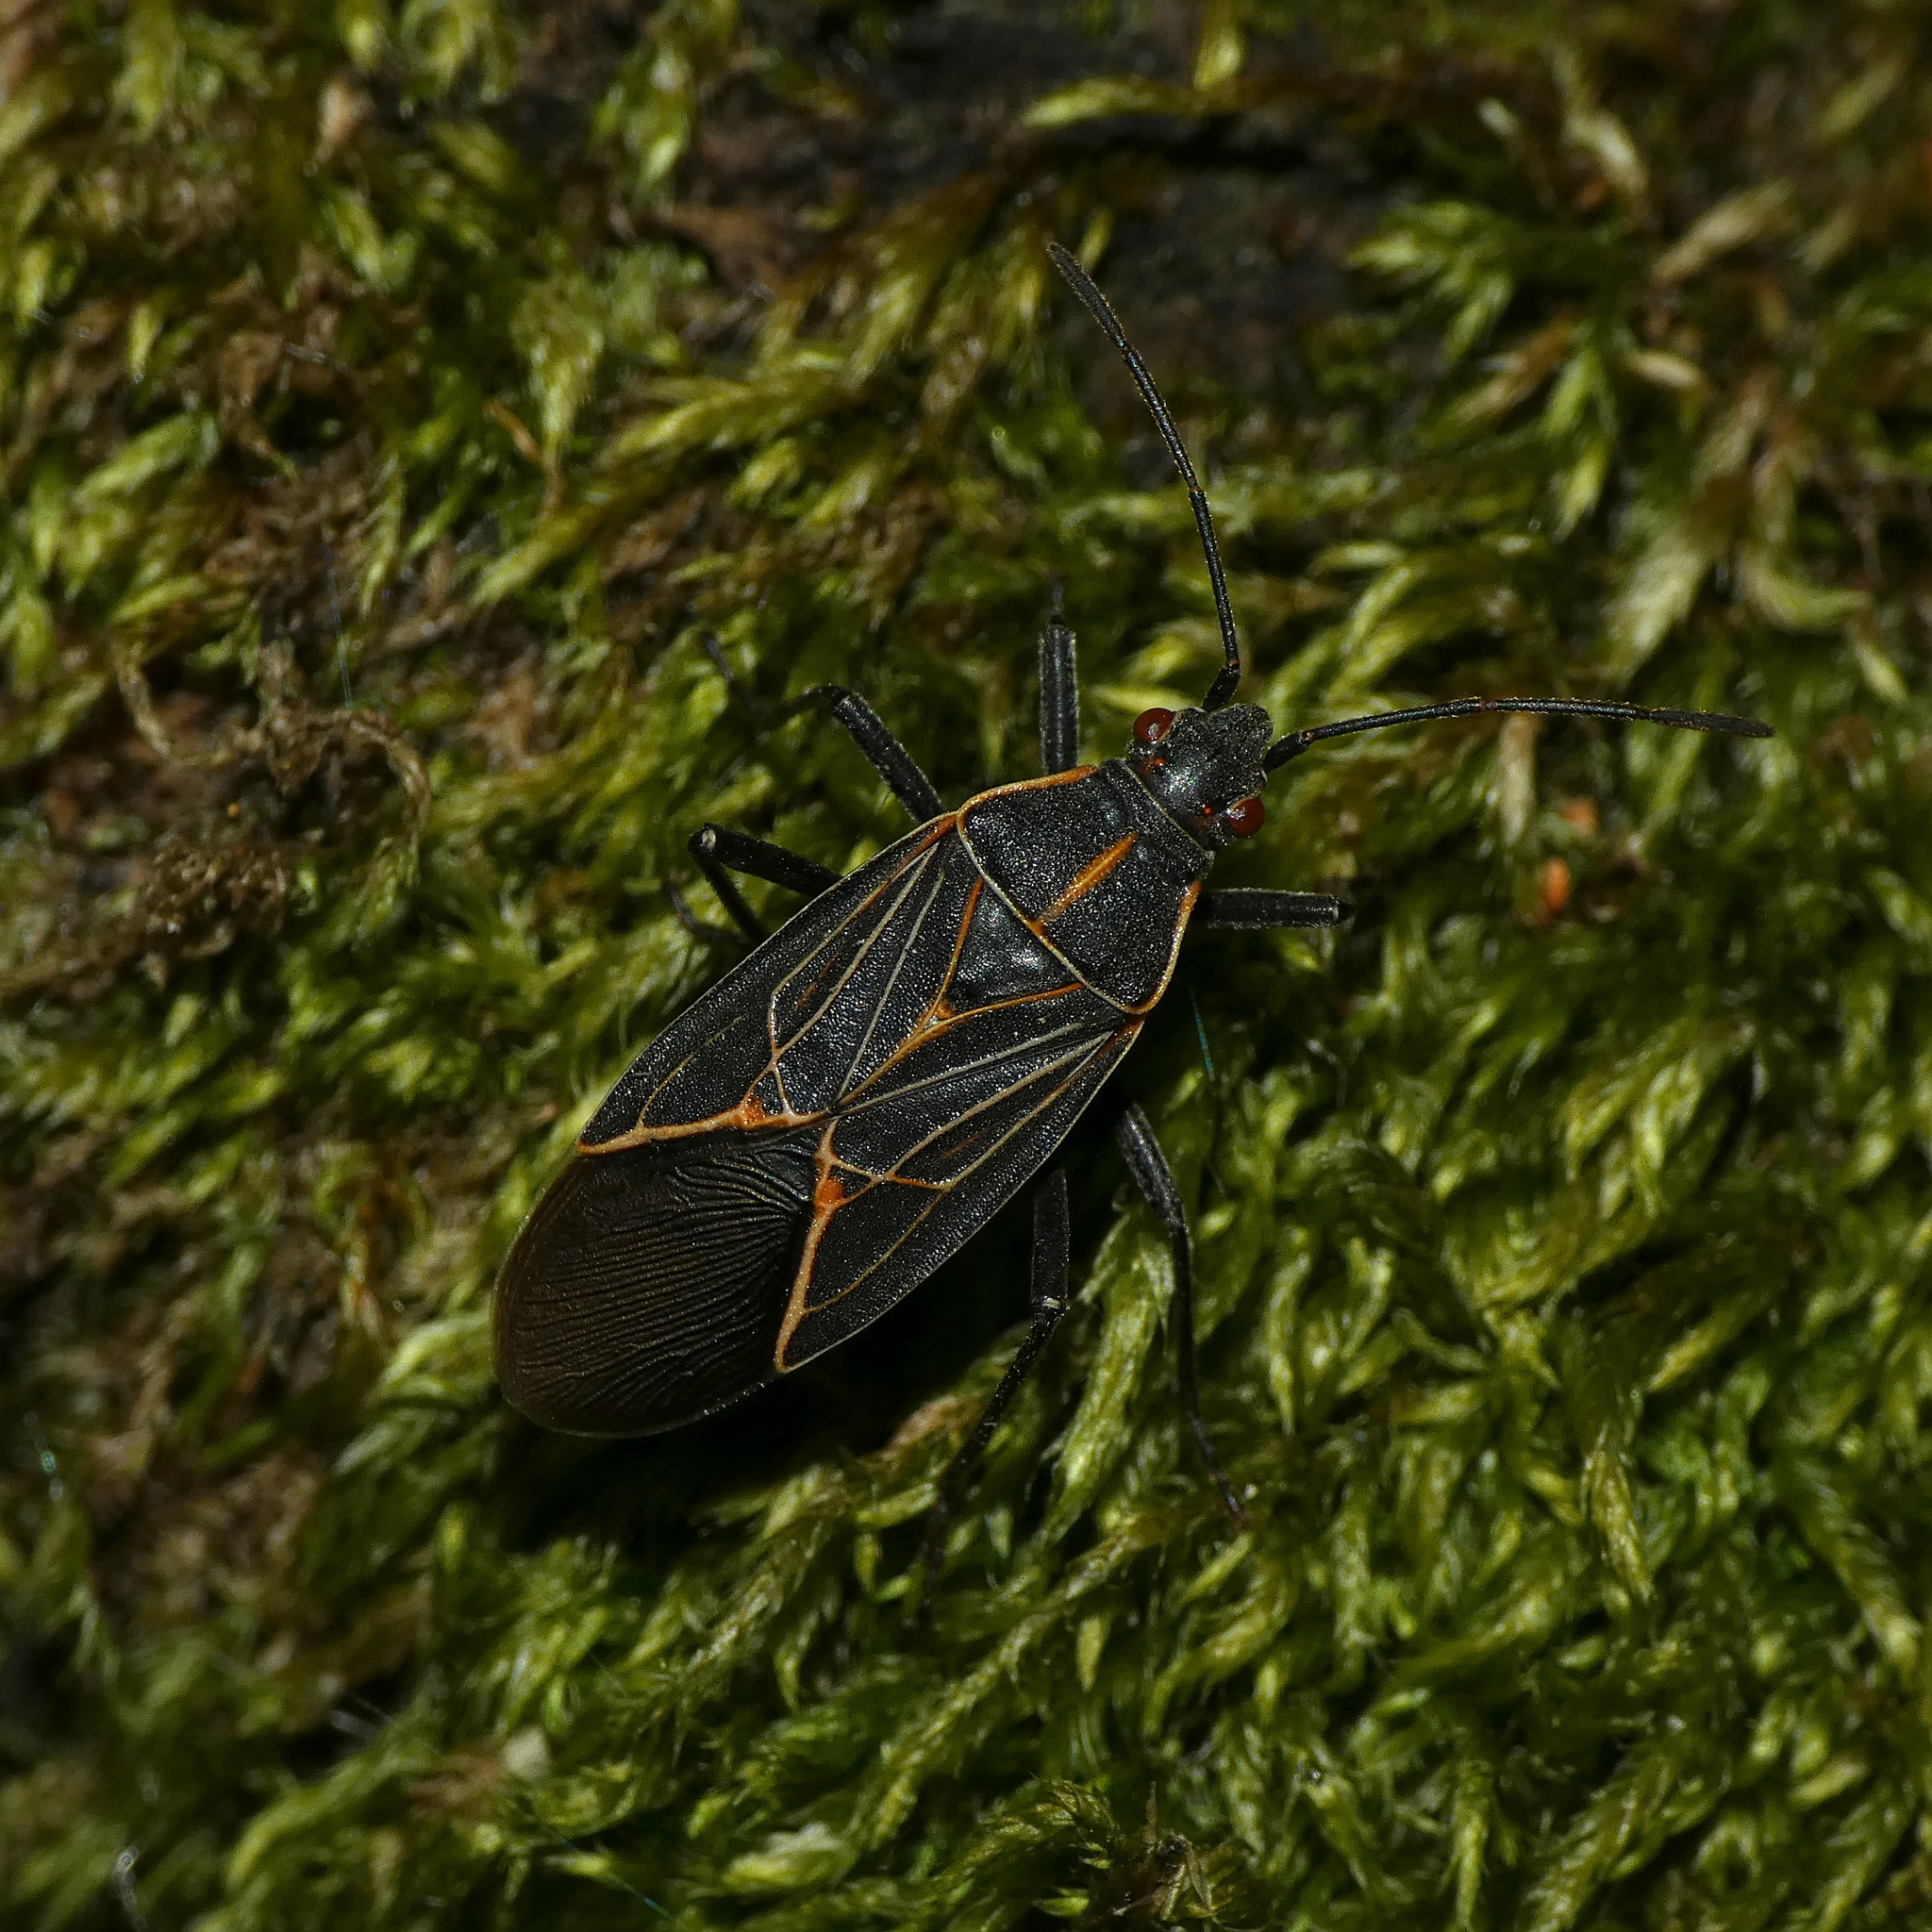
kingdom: Animalia
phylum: Arthropoda
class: Insecta
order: Hemiptera
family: Rhopalidae
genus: Boisea
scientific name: Boisea rubrolineata
